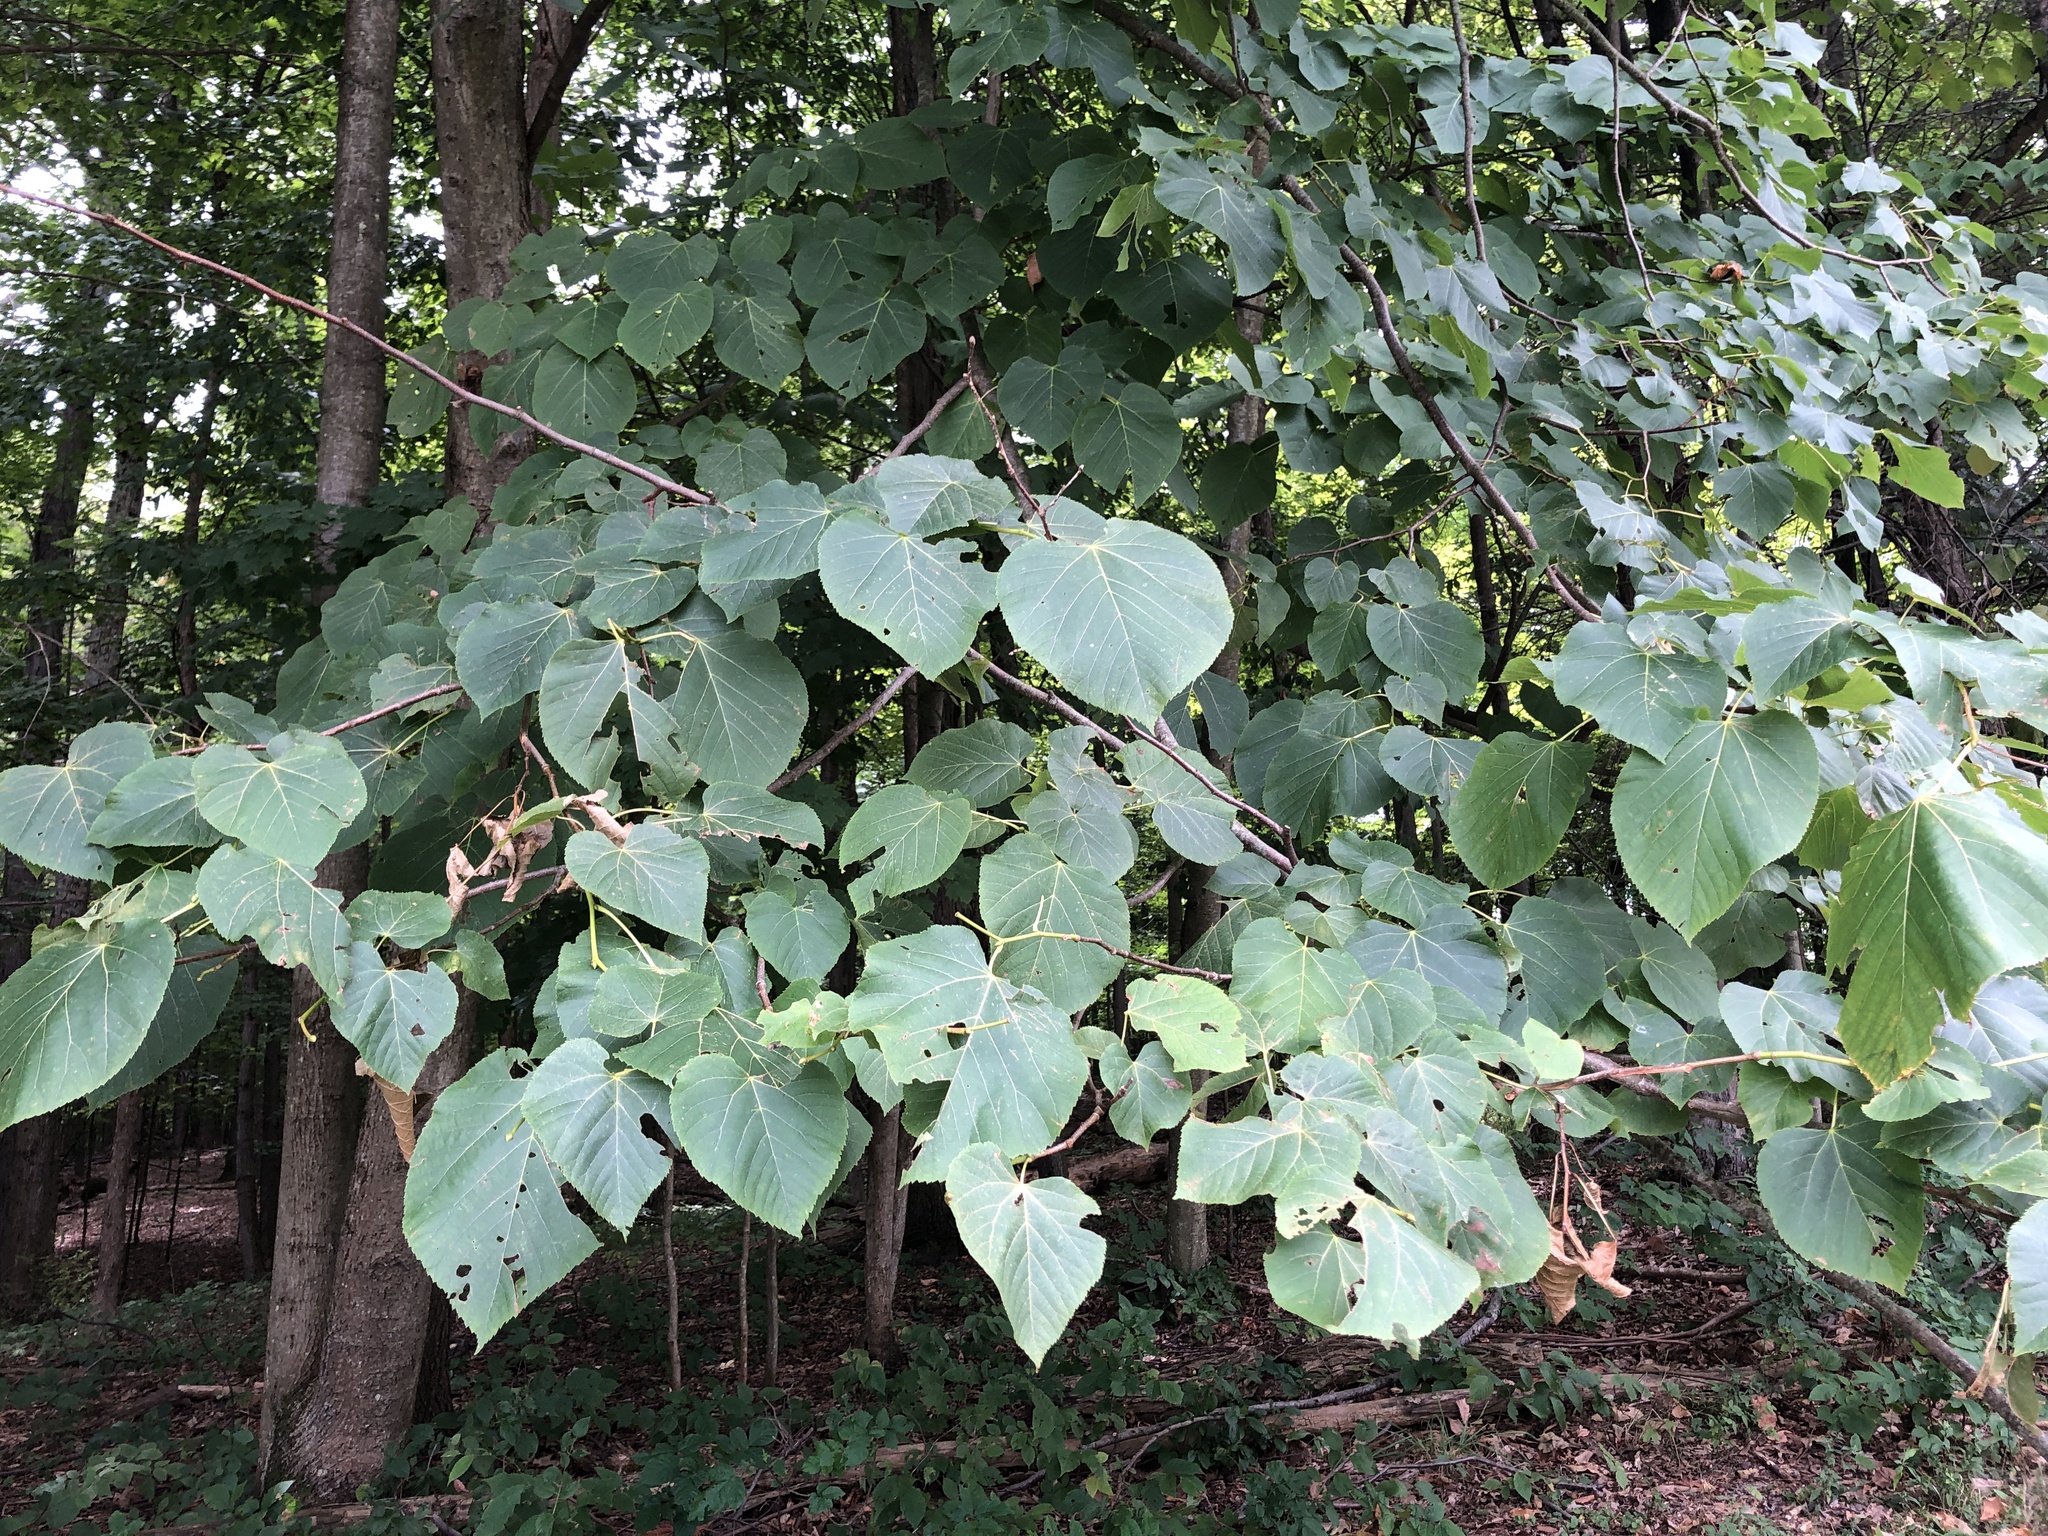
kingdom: Plantae
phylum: Tracheophyta
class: Magnoliopsida
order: Malvales
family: Malvaceae
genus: Tilia
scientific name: Tilia americana
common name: Basswood
